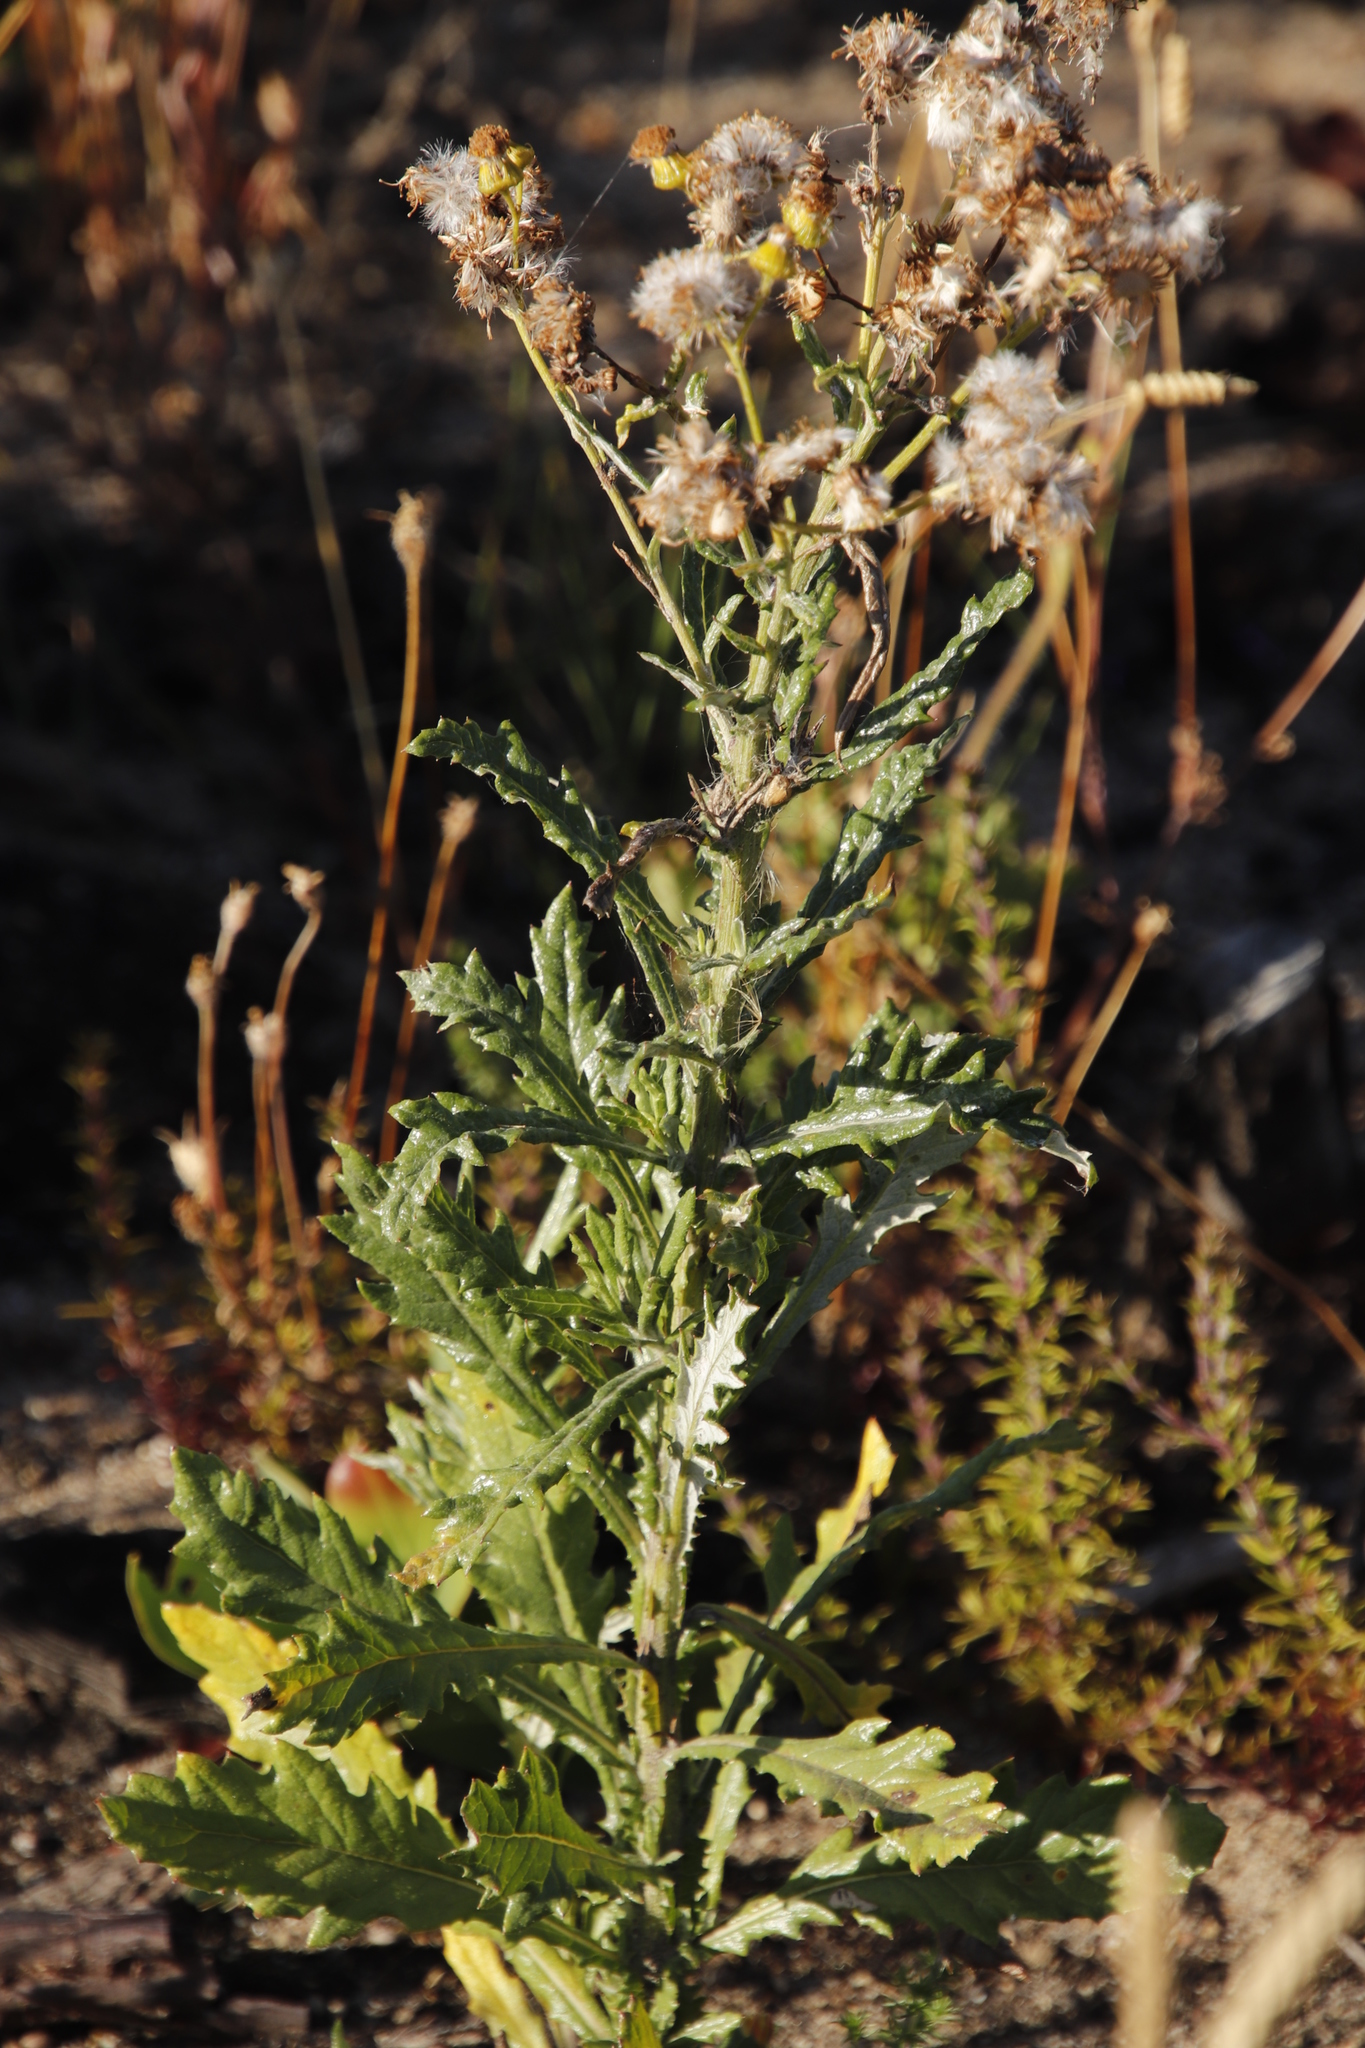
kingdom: Plantae
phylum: Tracheophyta
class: Magnoliopsida
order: Asterales
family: Asteraceae
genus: Senecio
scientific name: Senecio pterophorus
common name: Shoddy ragwort
